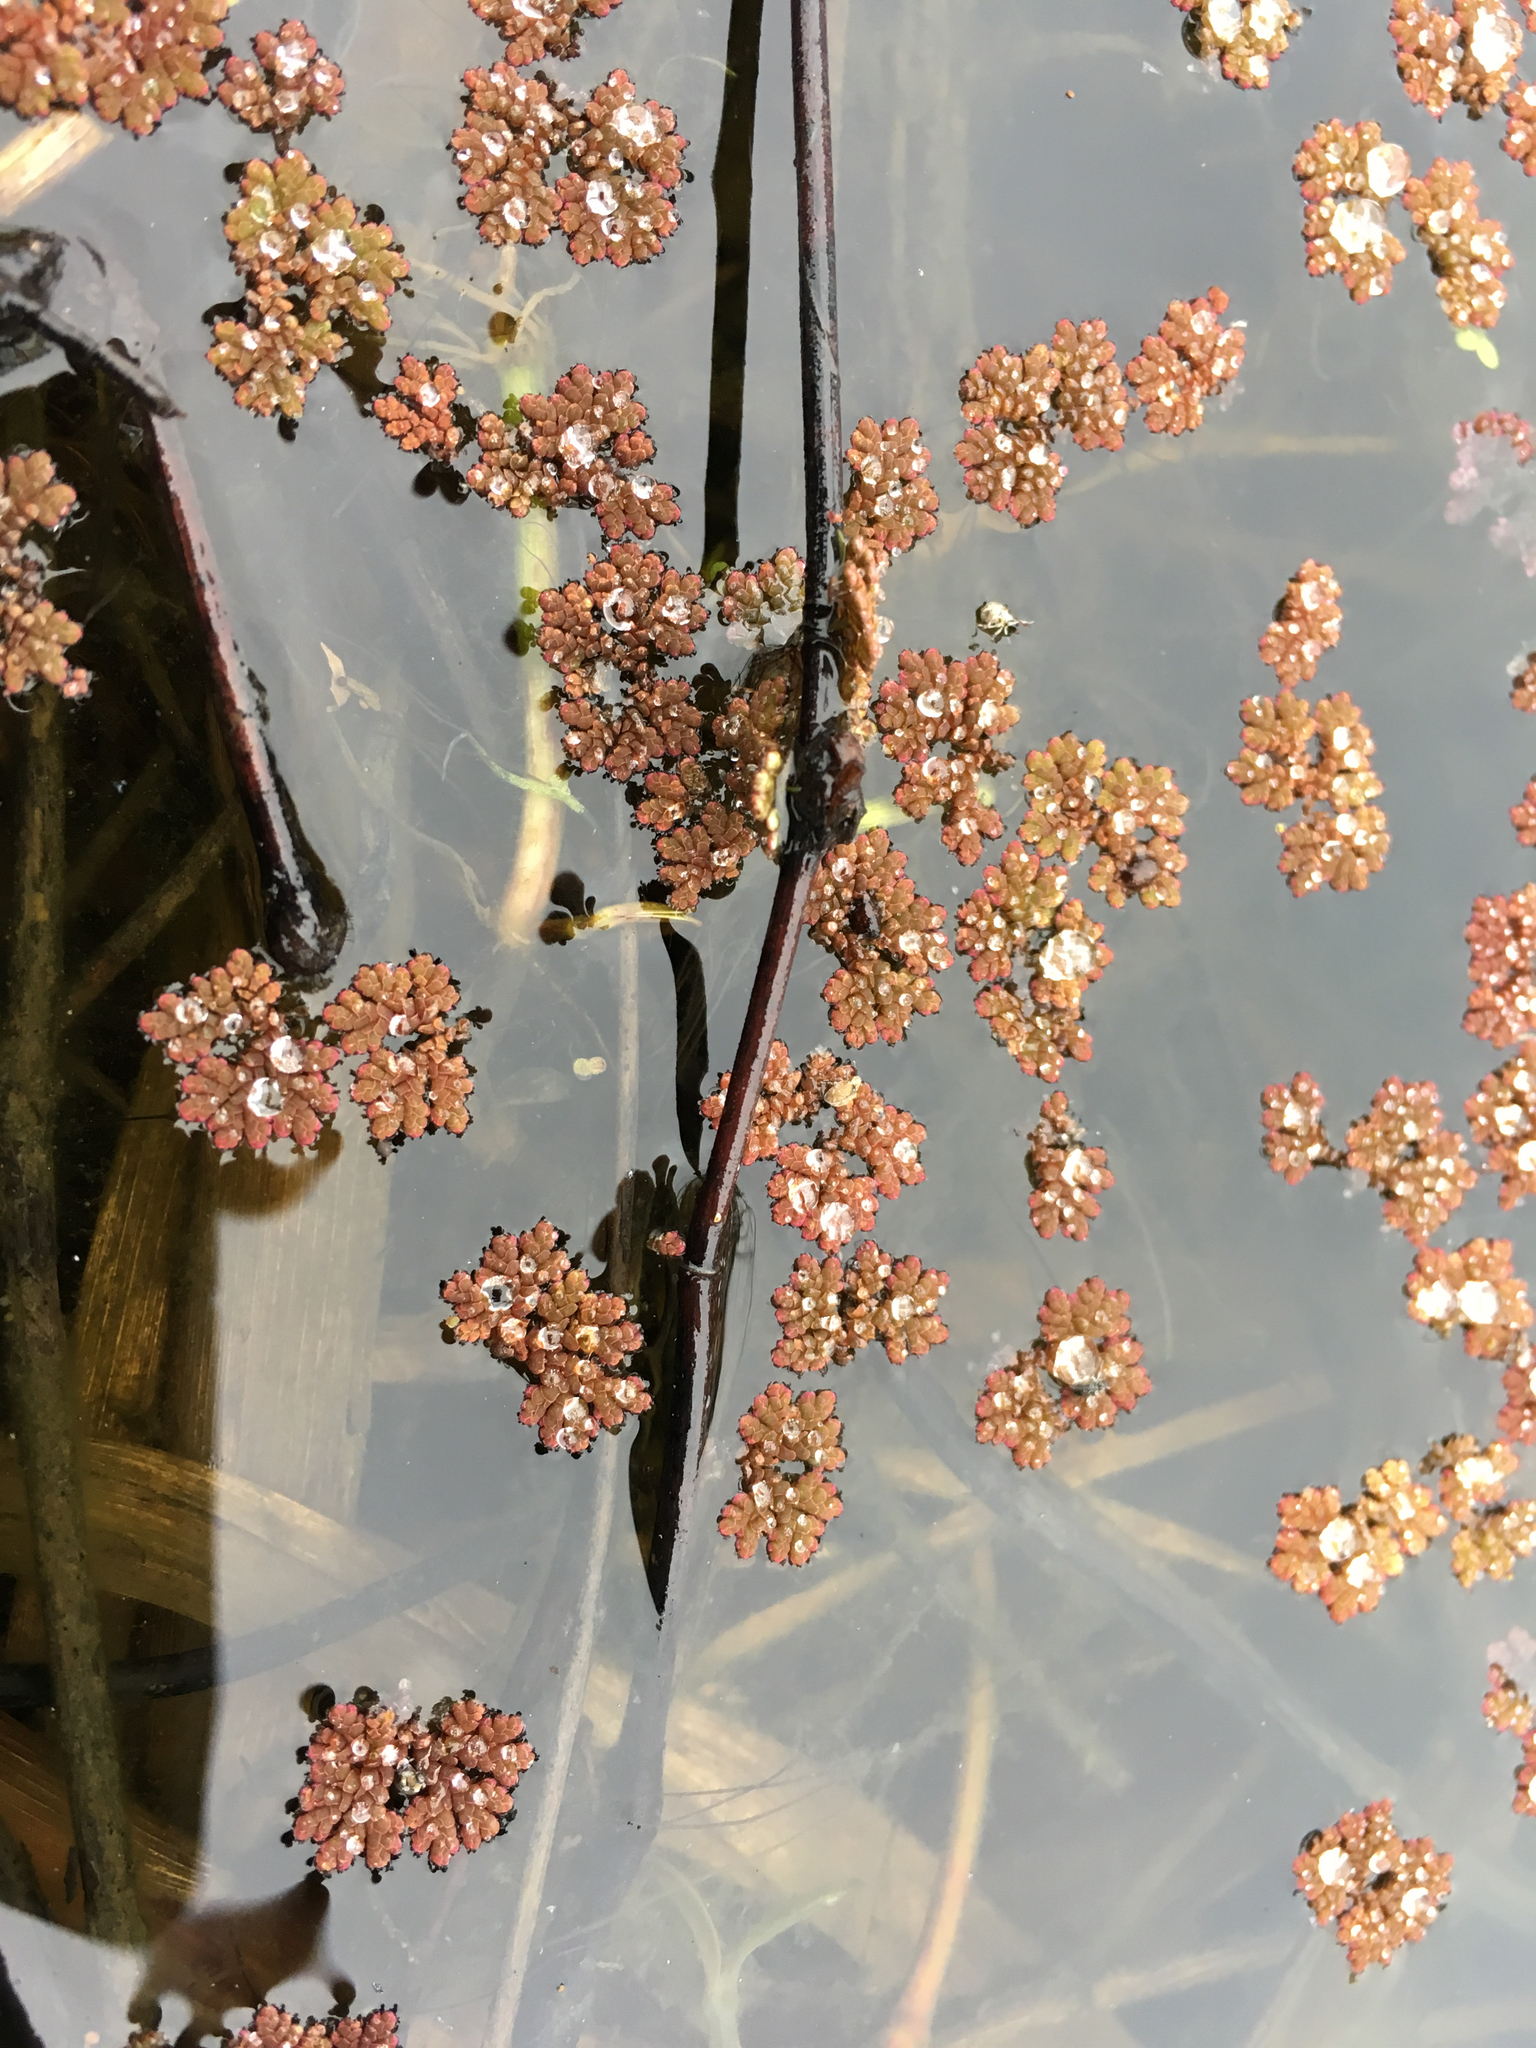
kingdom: Plantae
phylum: Tracheophyta
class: Polypodiopsida
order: Salviniales
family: Salviniaceae
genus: Azolla
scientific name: Azolla caroliniana
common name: Carolina mosquitofern
